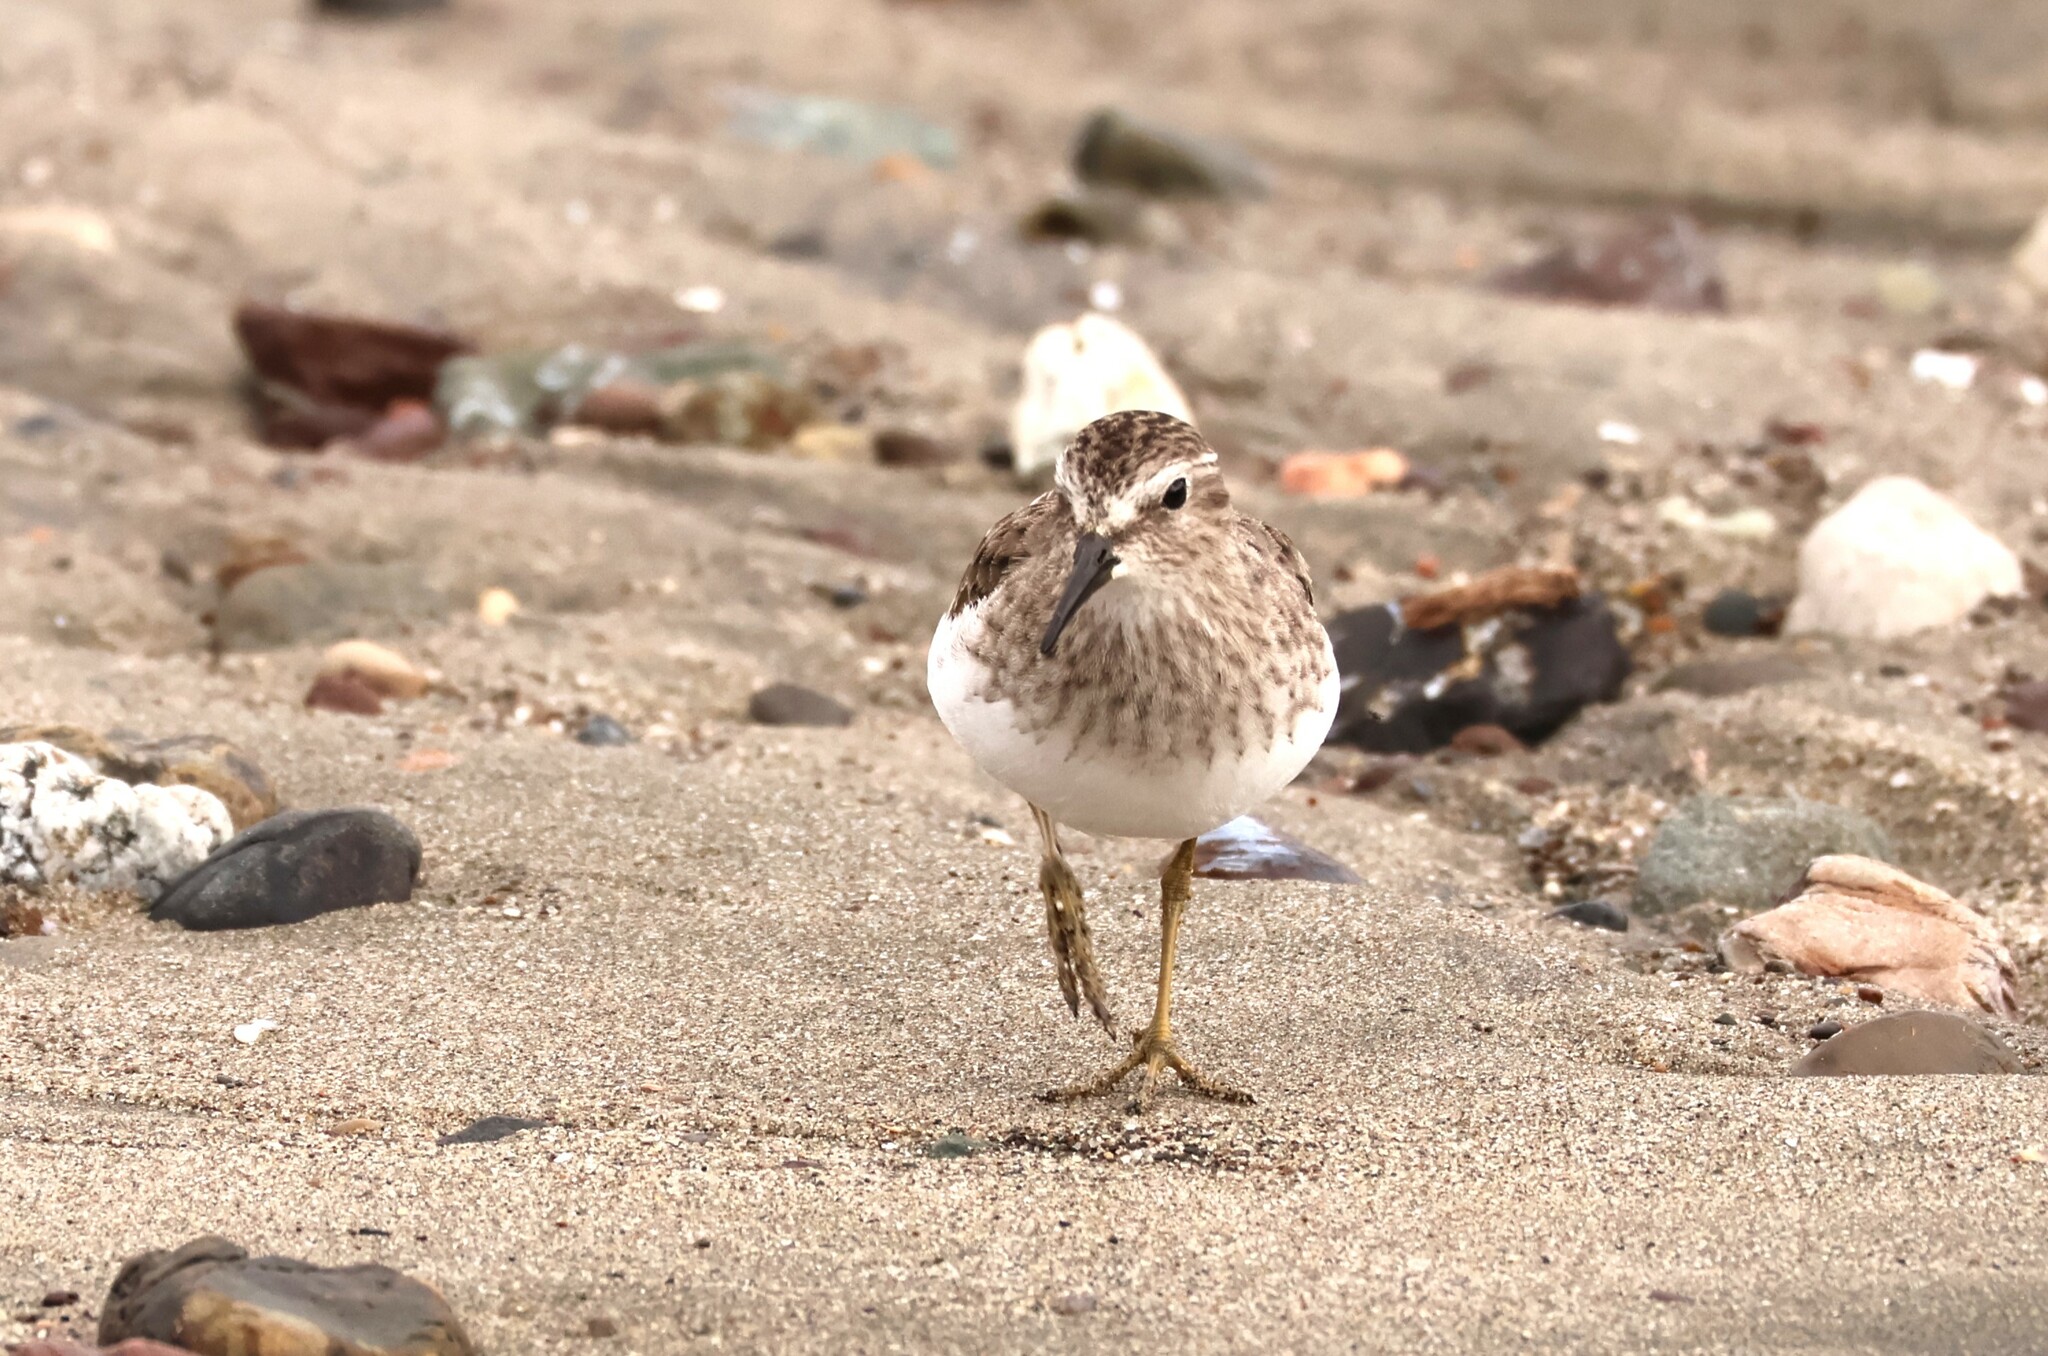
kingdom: Animalia
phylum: Chordata
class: Aves
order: Charadriiformes
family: Scolopacidae
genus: Calidris
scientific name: Calidris minutilla
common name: Least sandpiper
